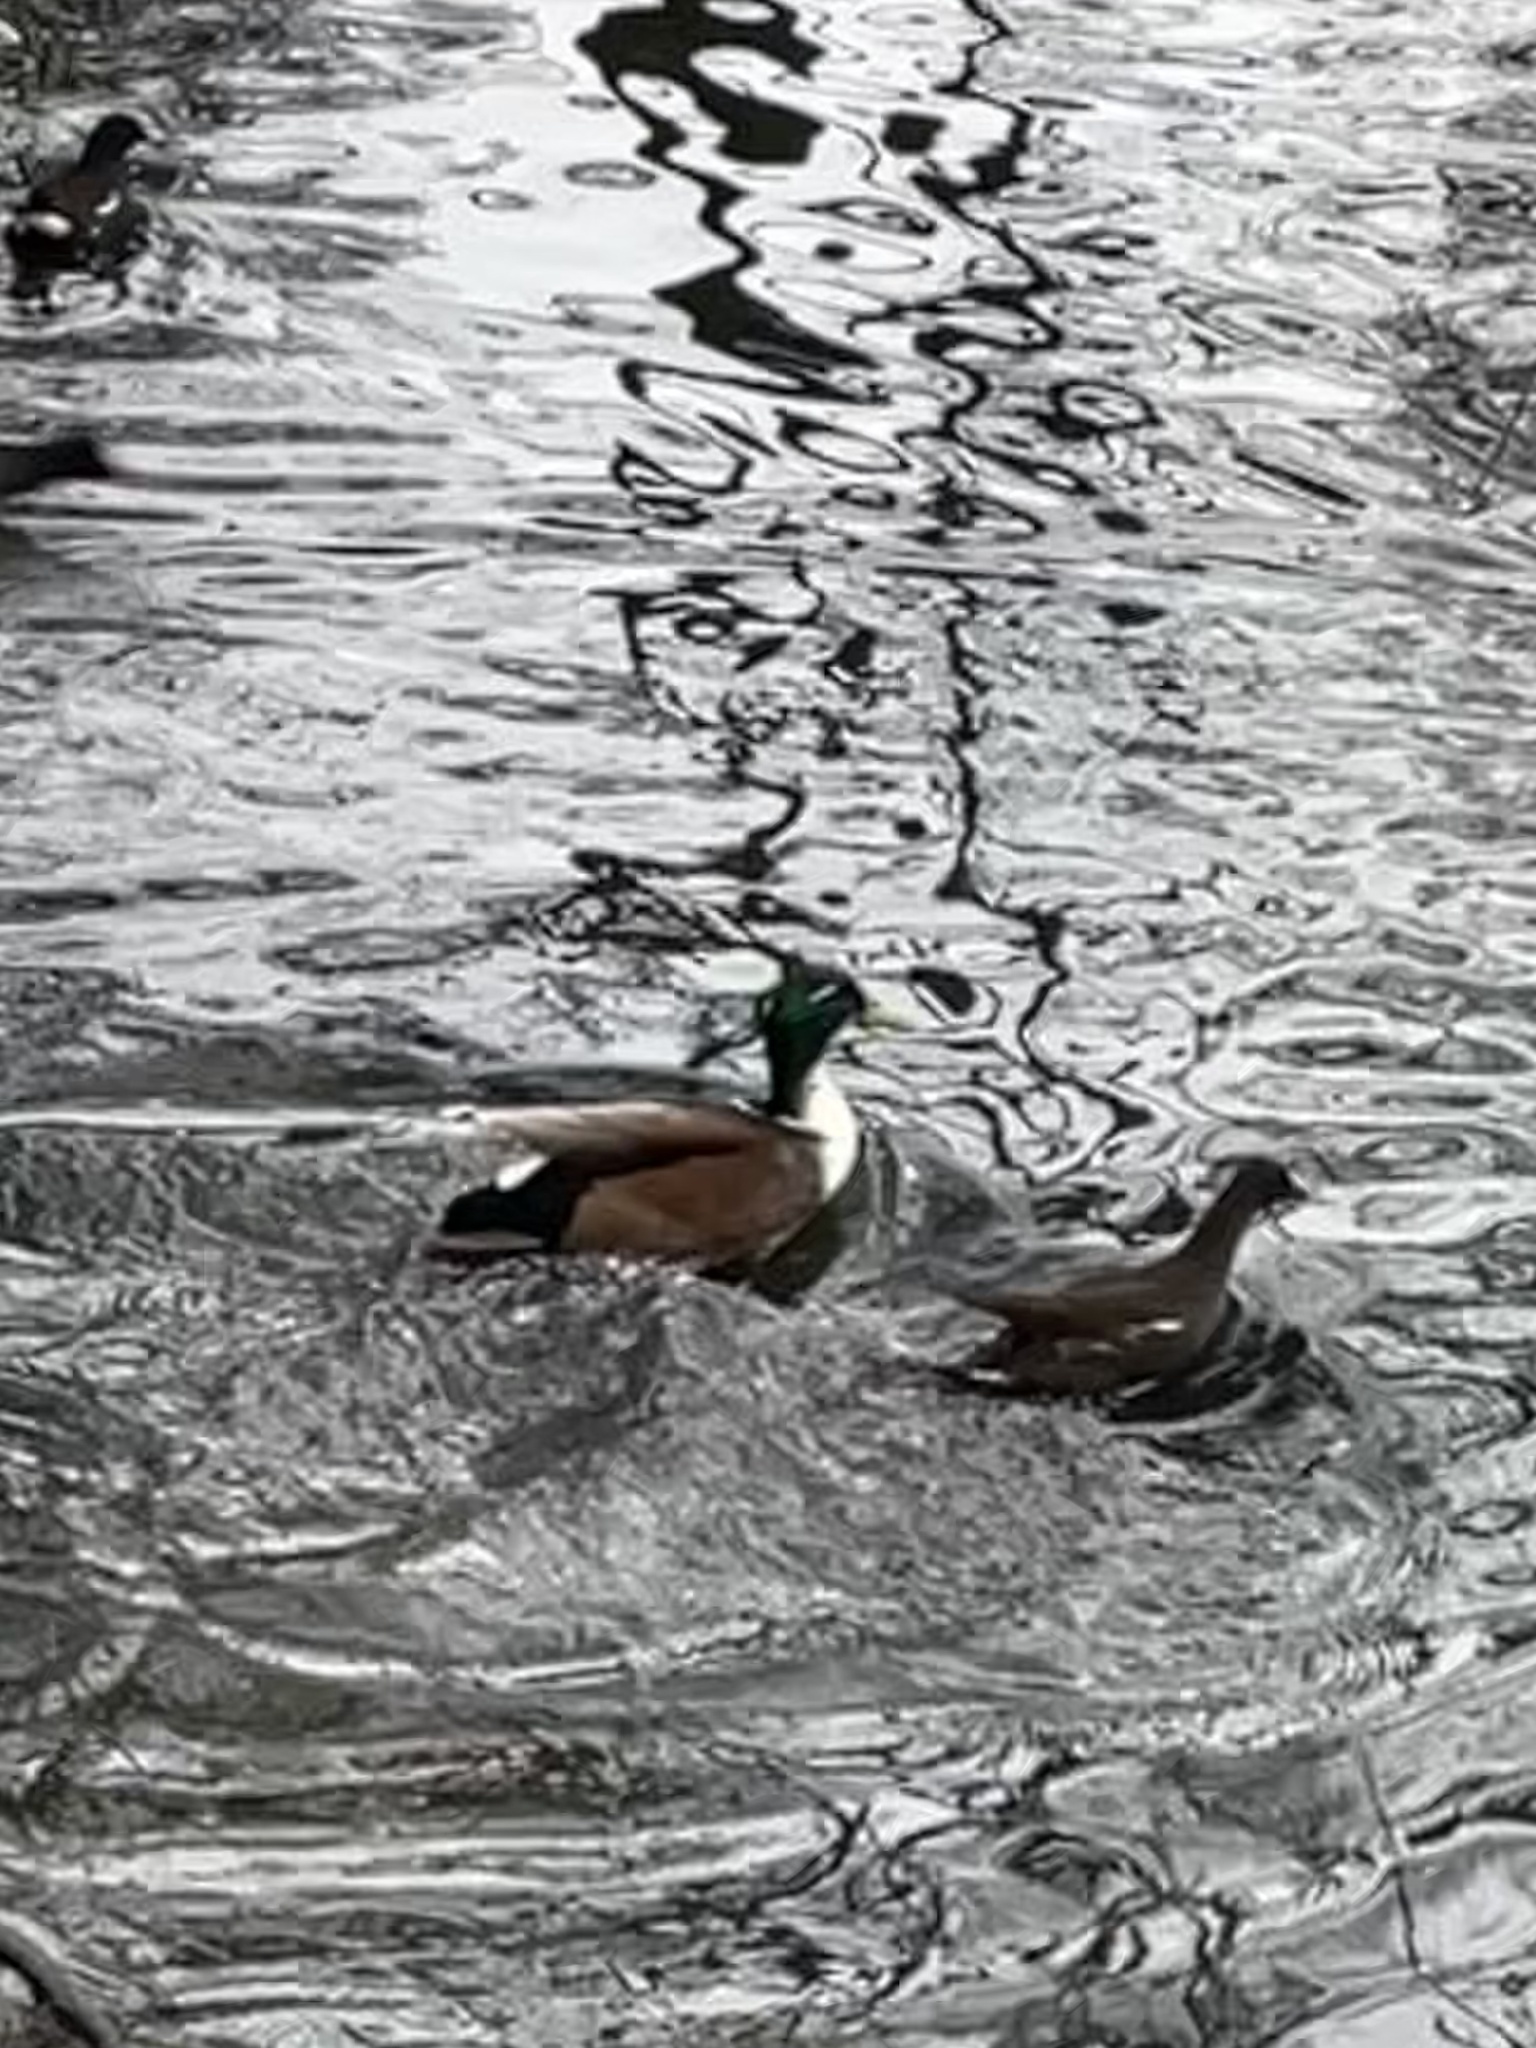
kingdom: Animalia
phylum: Chordata
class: Aves
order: Anseriformes
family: Anatidae
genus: Anas
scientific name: Anas platyrhynchos
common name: Mallard
